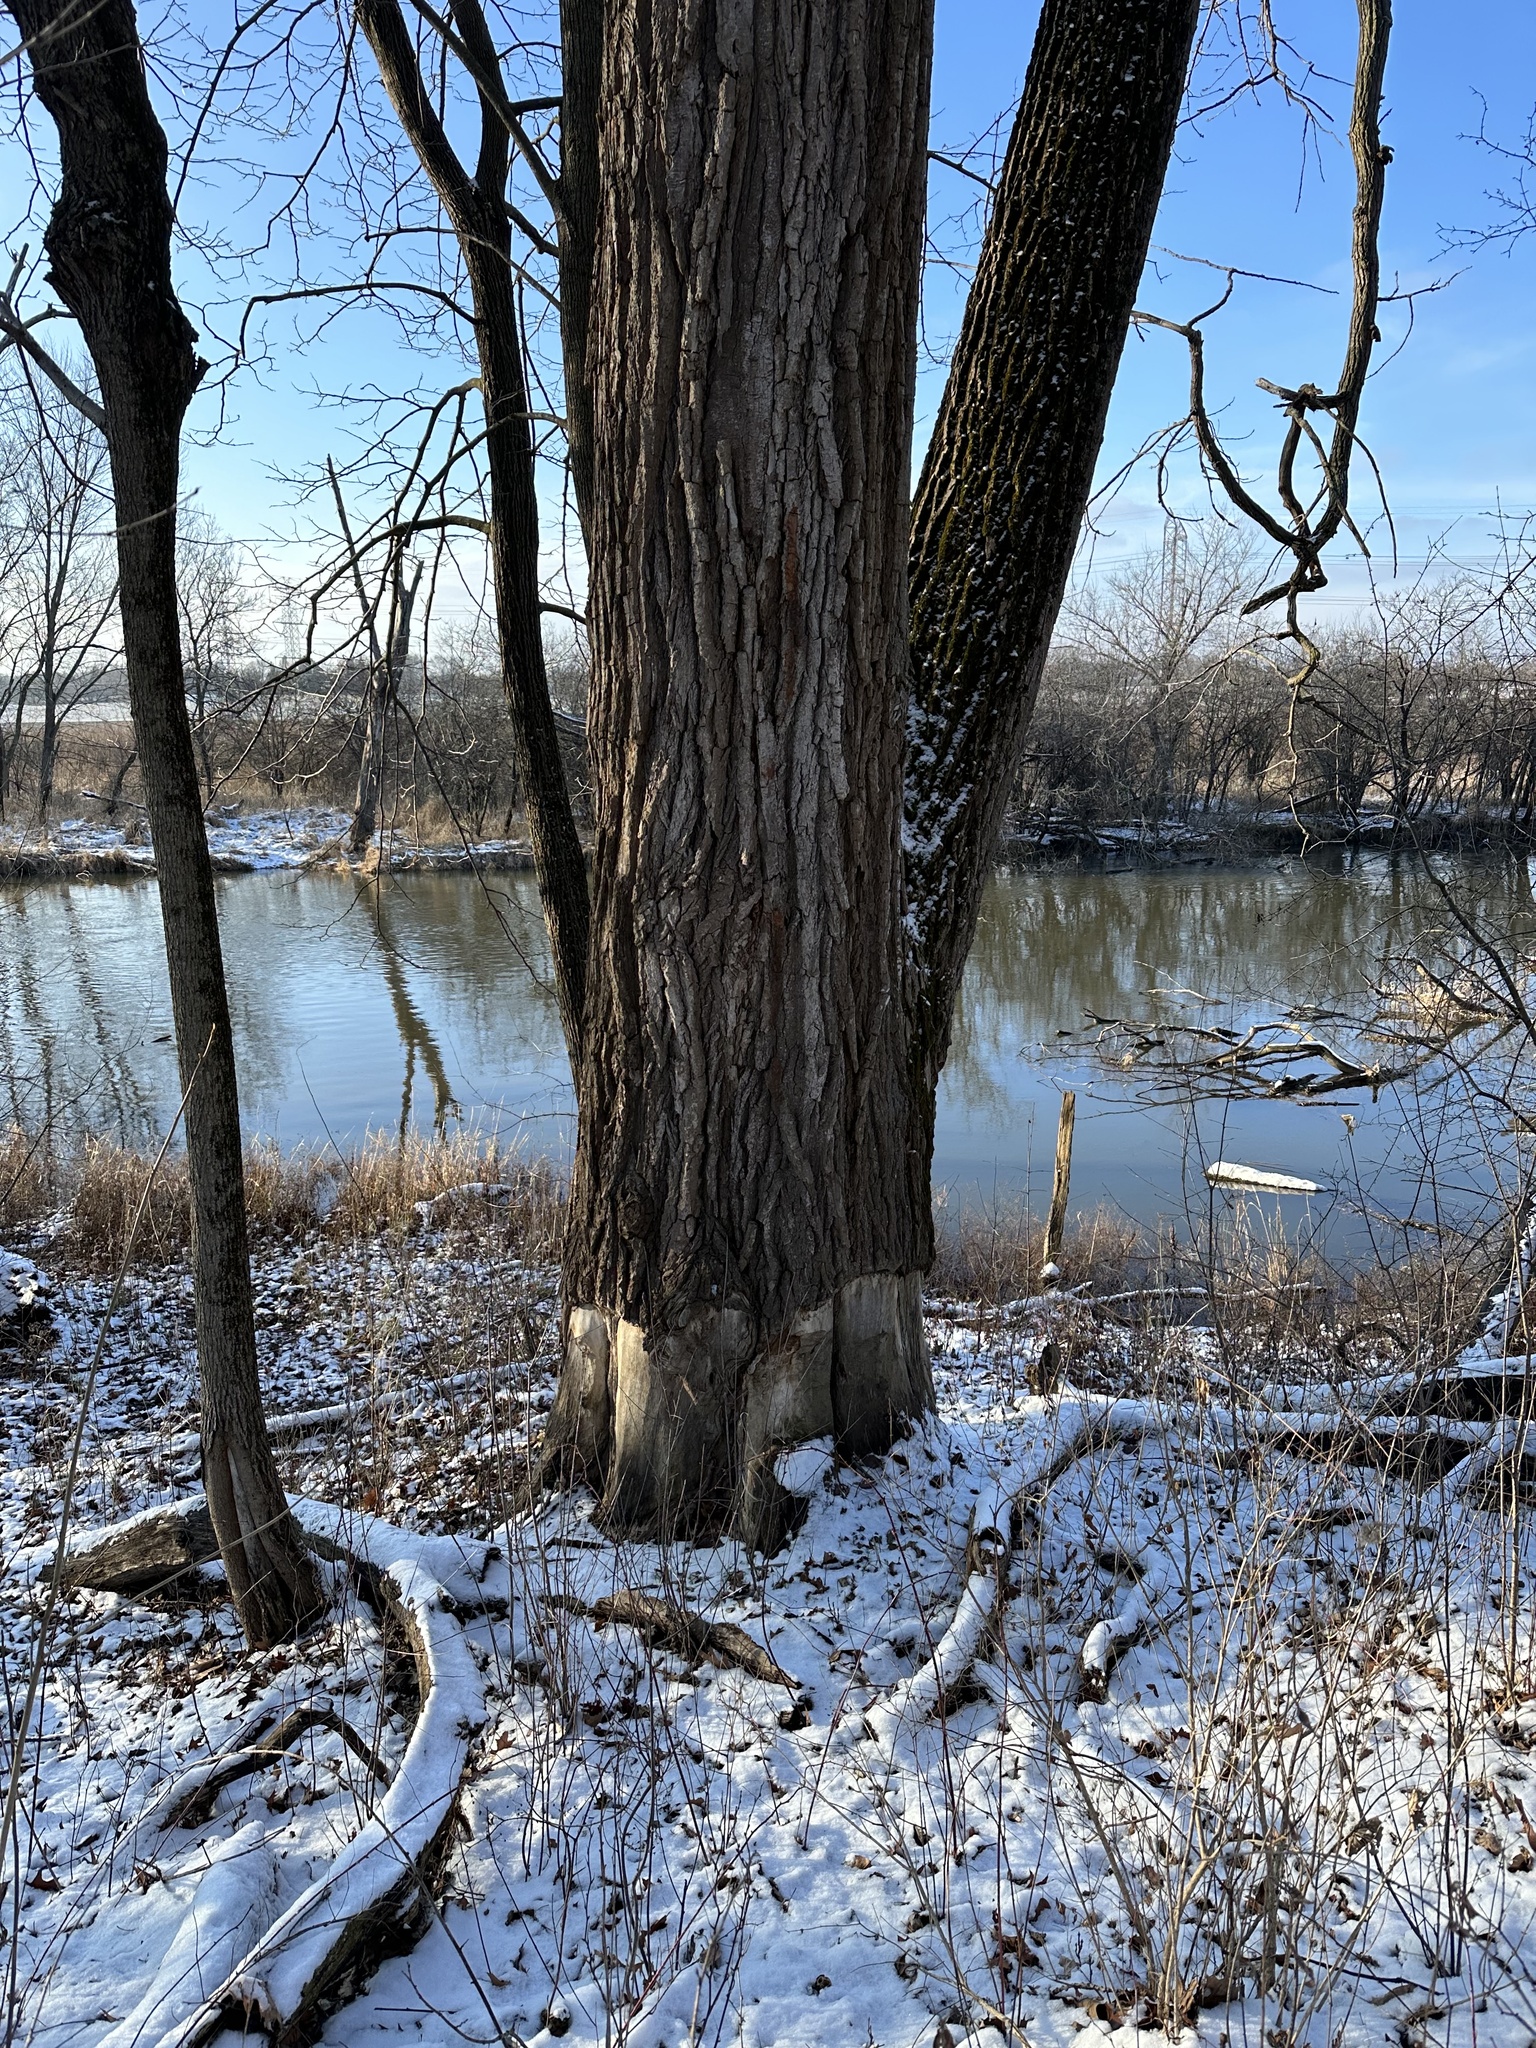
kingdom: Animalia
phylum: Chordata
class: Mammalia
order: Rodentia
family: Castoridae
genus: Castor
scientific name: Castor canadensis
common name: American beaver
